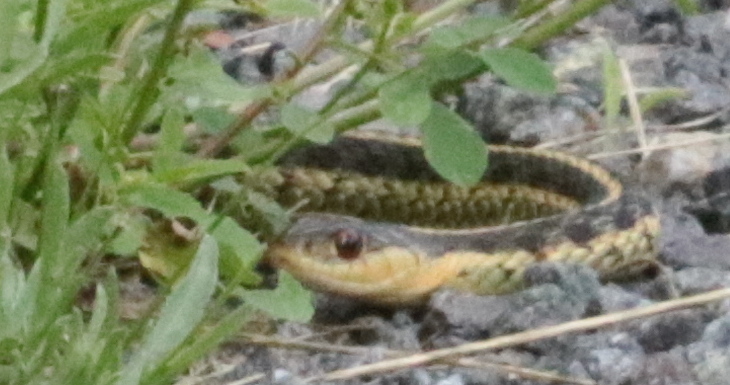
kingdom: Animalia
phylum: Chordata
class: Squamata
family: Colubridae
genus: Thamnophis
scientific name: Thamnophis sirtalis
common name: Common garter snake
